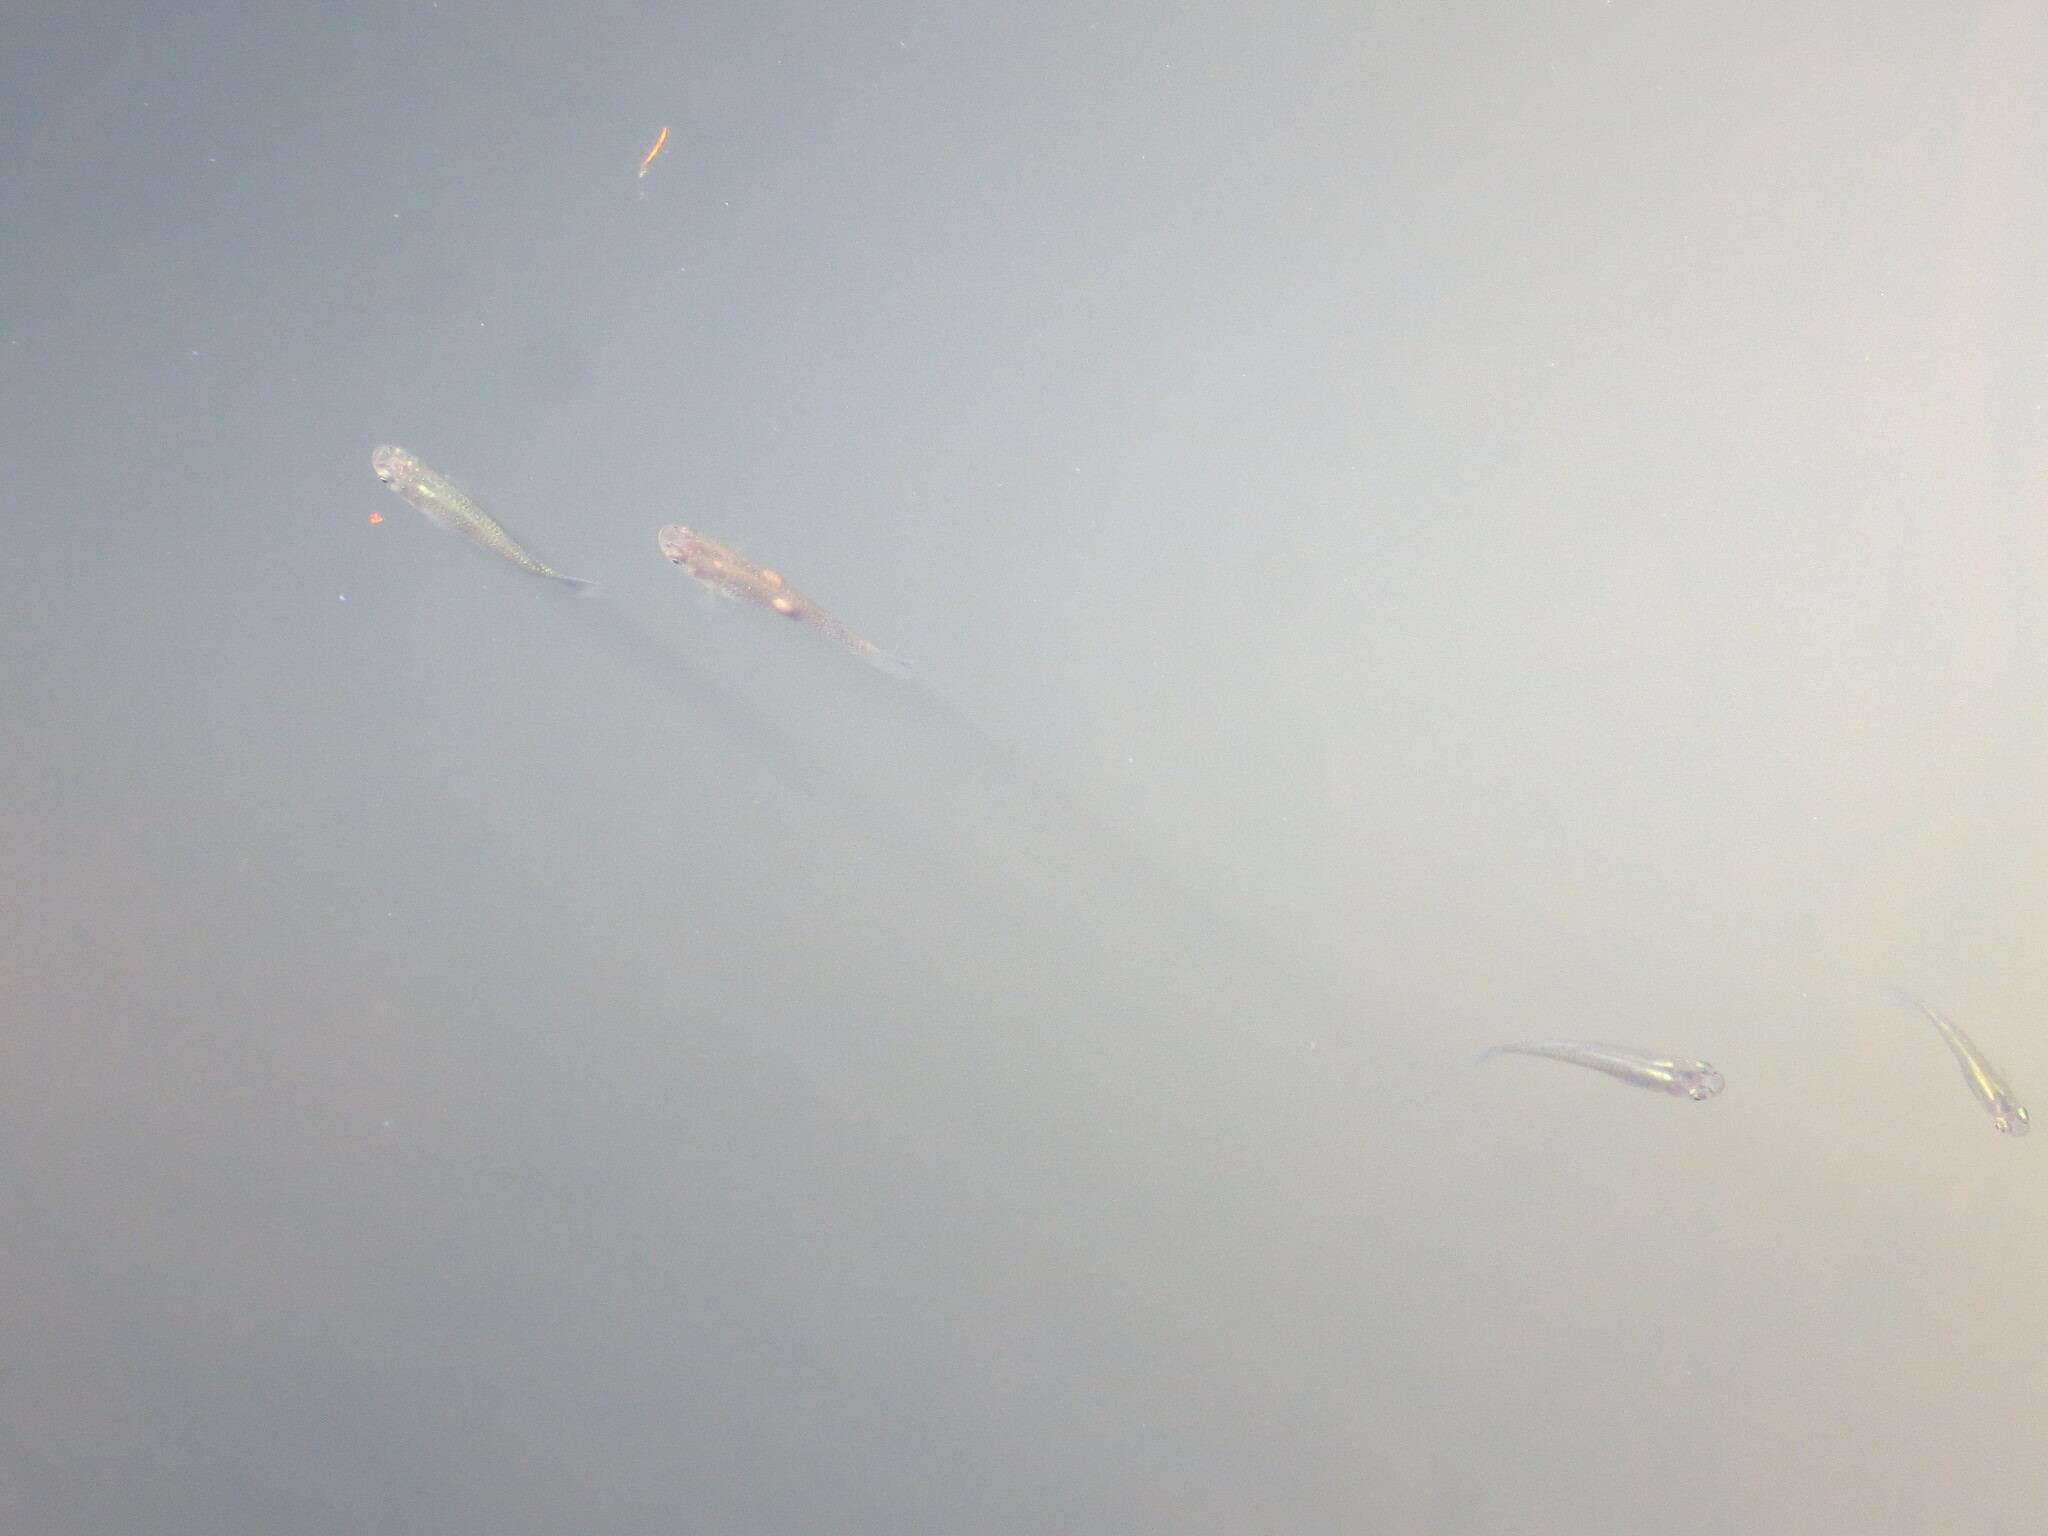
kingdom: Animalia
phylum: Chordata
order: Cyprinodontiformes
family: Poeciliidae
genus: Gambusia
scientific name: Gambusia holbrooki
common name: Eastern mosquitofish
